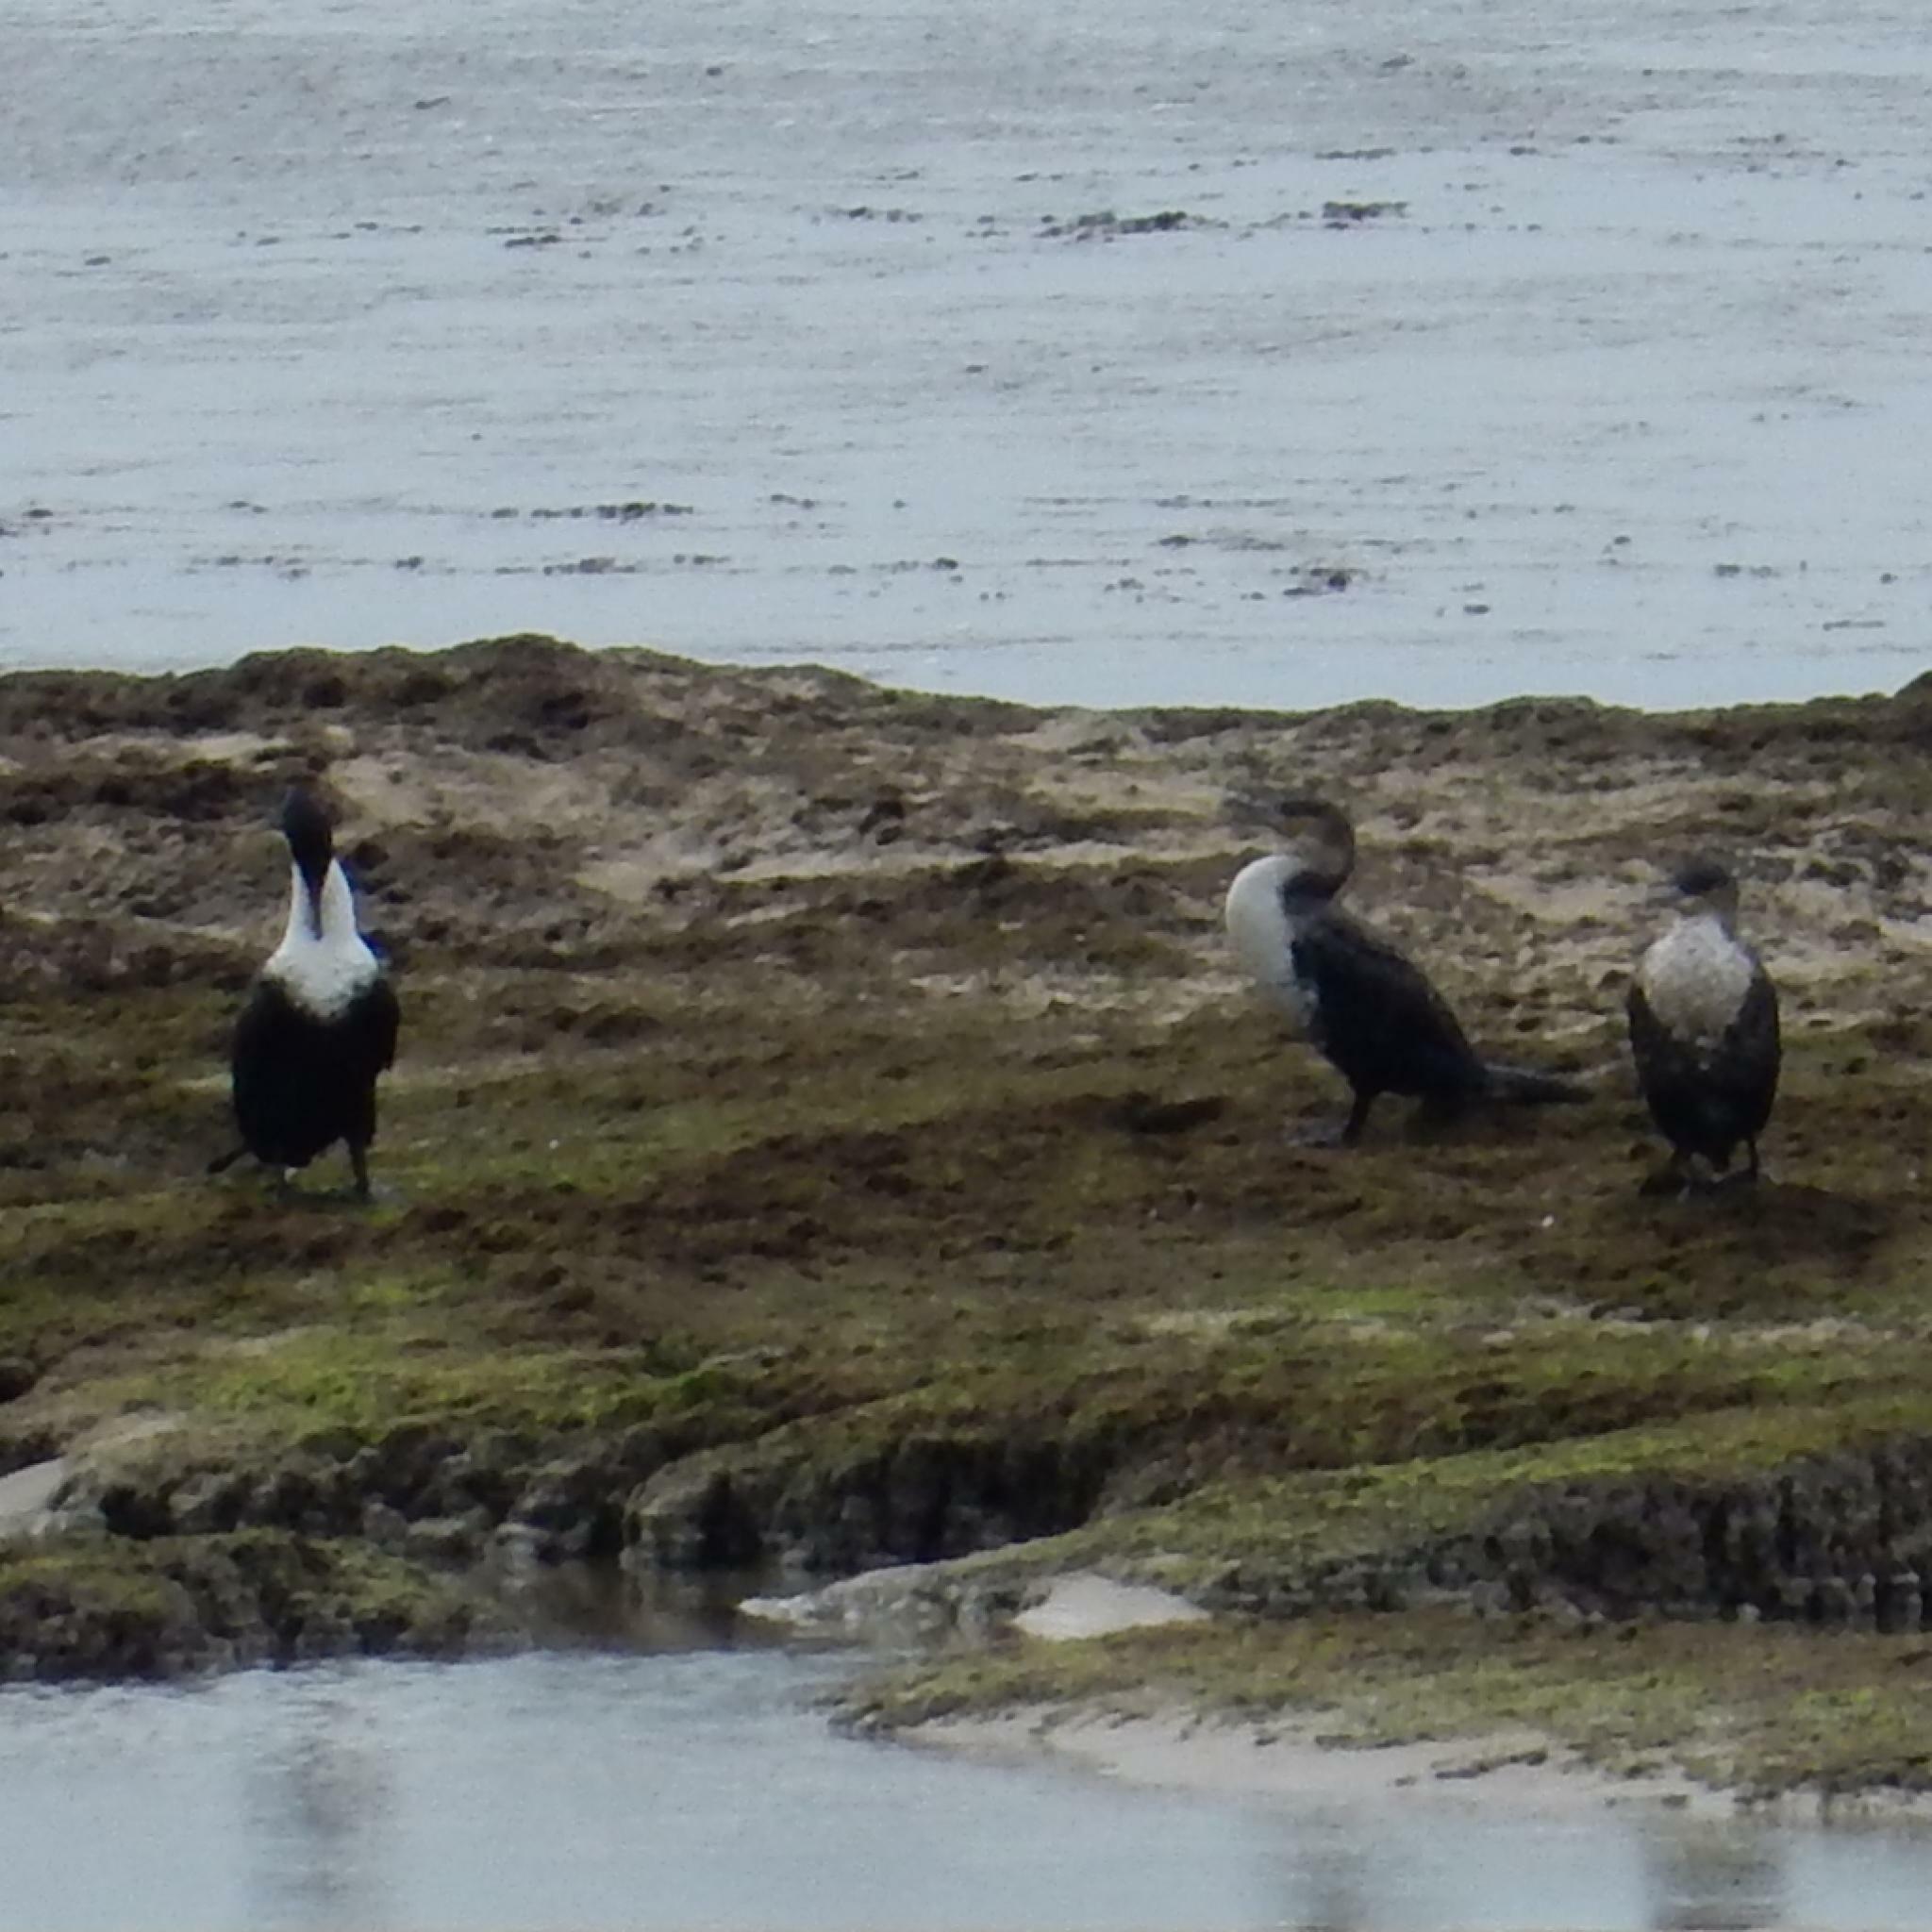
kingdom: Animalia
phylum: Chordata
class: Aves
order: Suliformes
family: Phalacrocoracidae
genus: Phalacrocorax
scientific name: Phalacrocorax carbo
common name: Great cormorant
